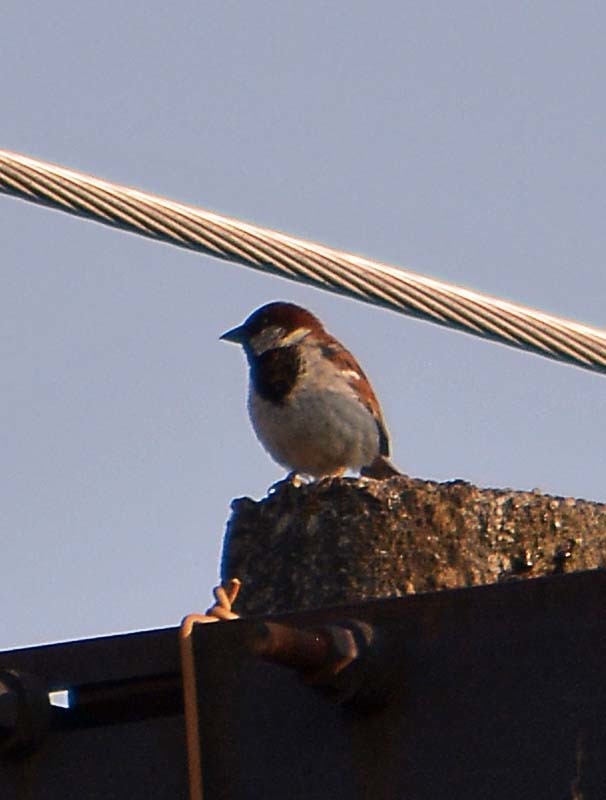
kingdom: Animalia
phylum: Chordata
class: Aves
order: Passeriformes
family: Passeridae
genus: Passer
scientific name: Passer domesticus
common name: House sparrow
